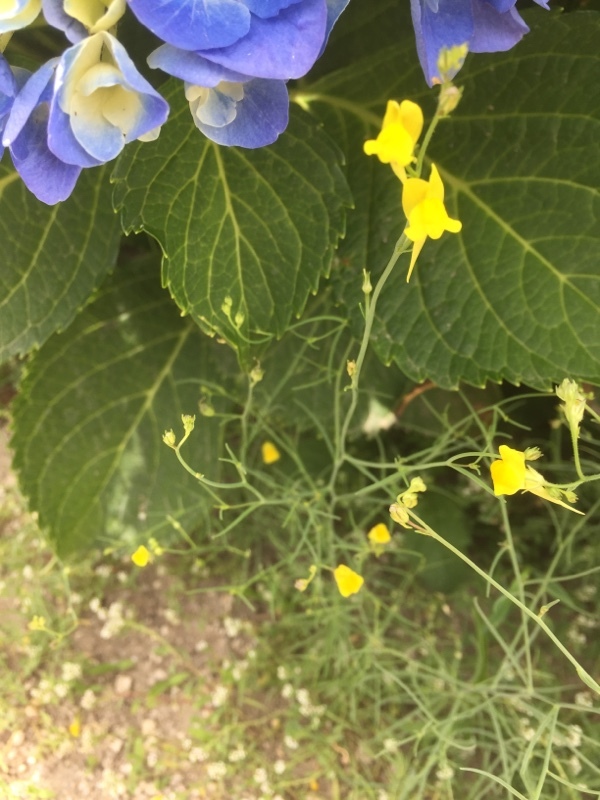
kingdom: Plantae
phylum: Tracheophyta
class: Magnoliopsida
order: Lamiales
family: Plantaginaceae
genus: Linaria
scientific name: Linaria spartea
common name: Ballast toadflax
